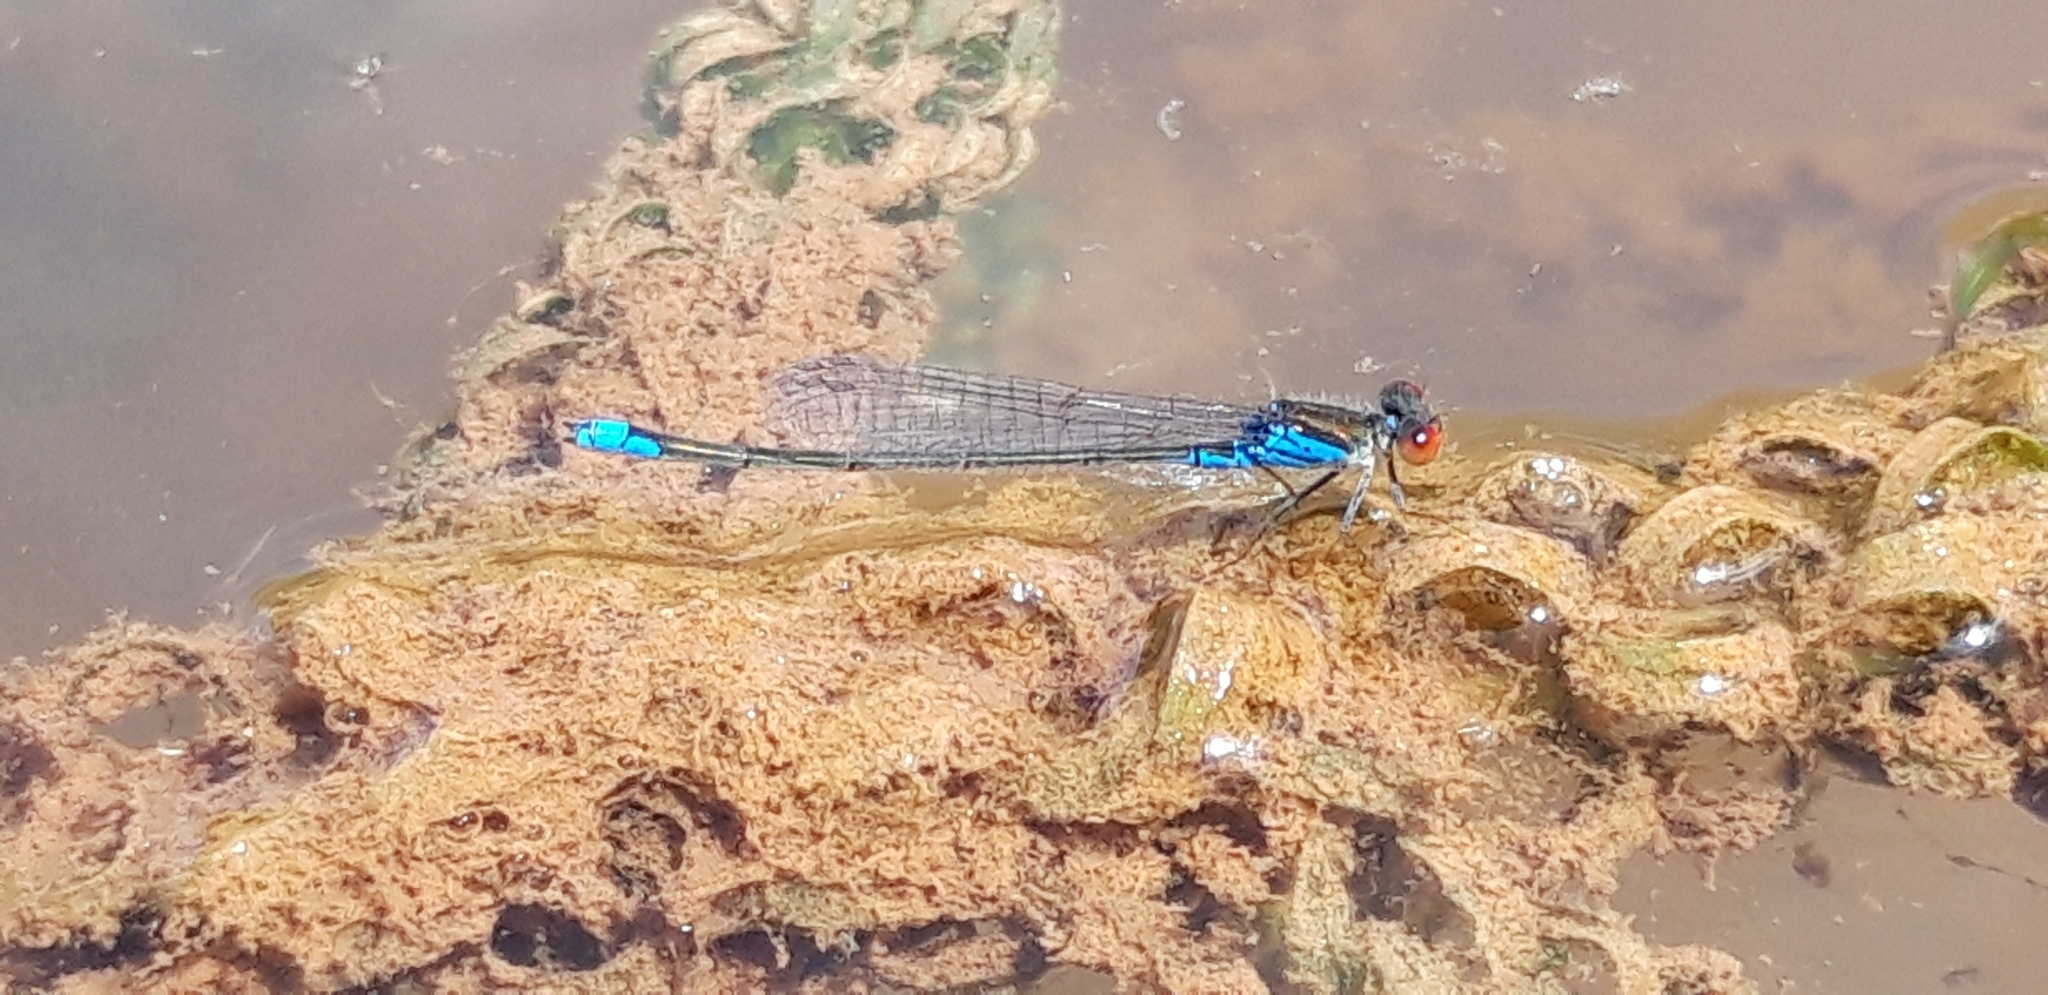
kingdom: Animalia
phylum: Arthropoda
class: Insecta
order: Odonata
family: Coenagrionidae
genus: Erythromma
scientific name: Erythromma viridulum
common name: Small red-eyed damselfly
